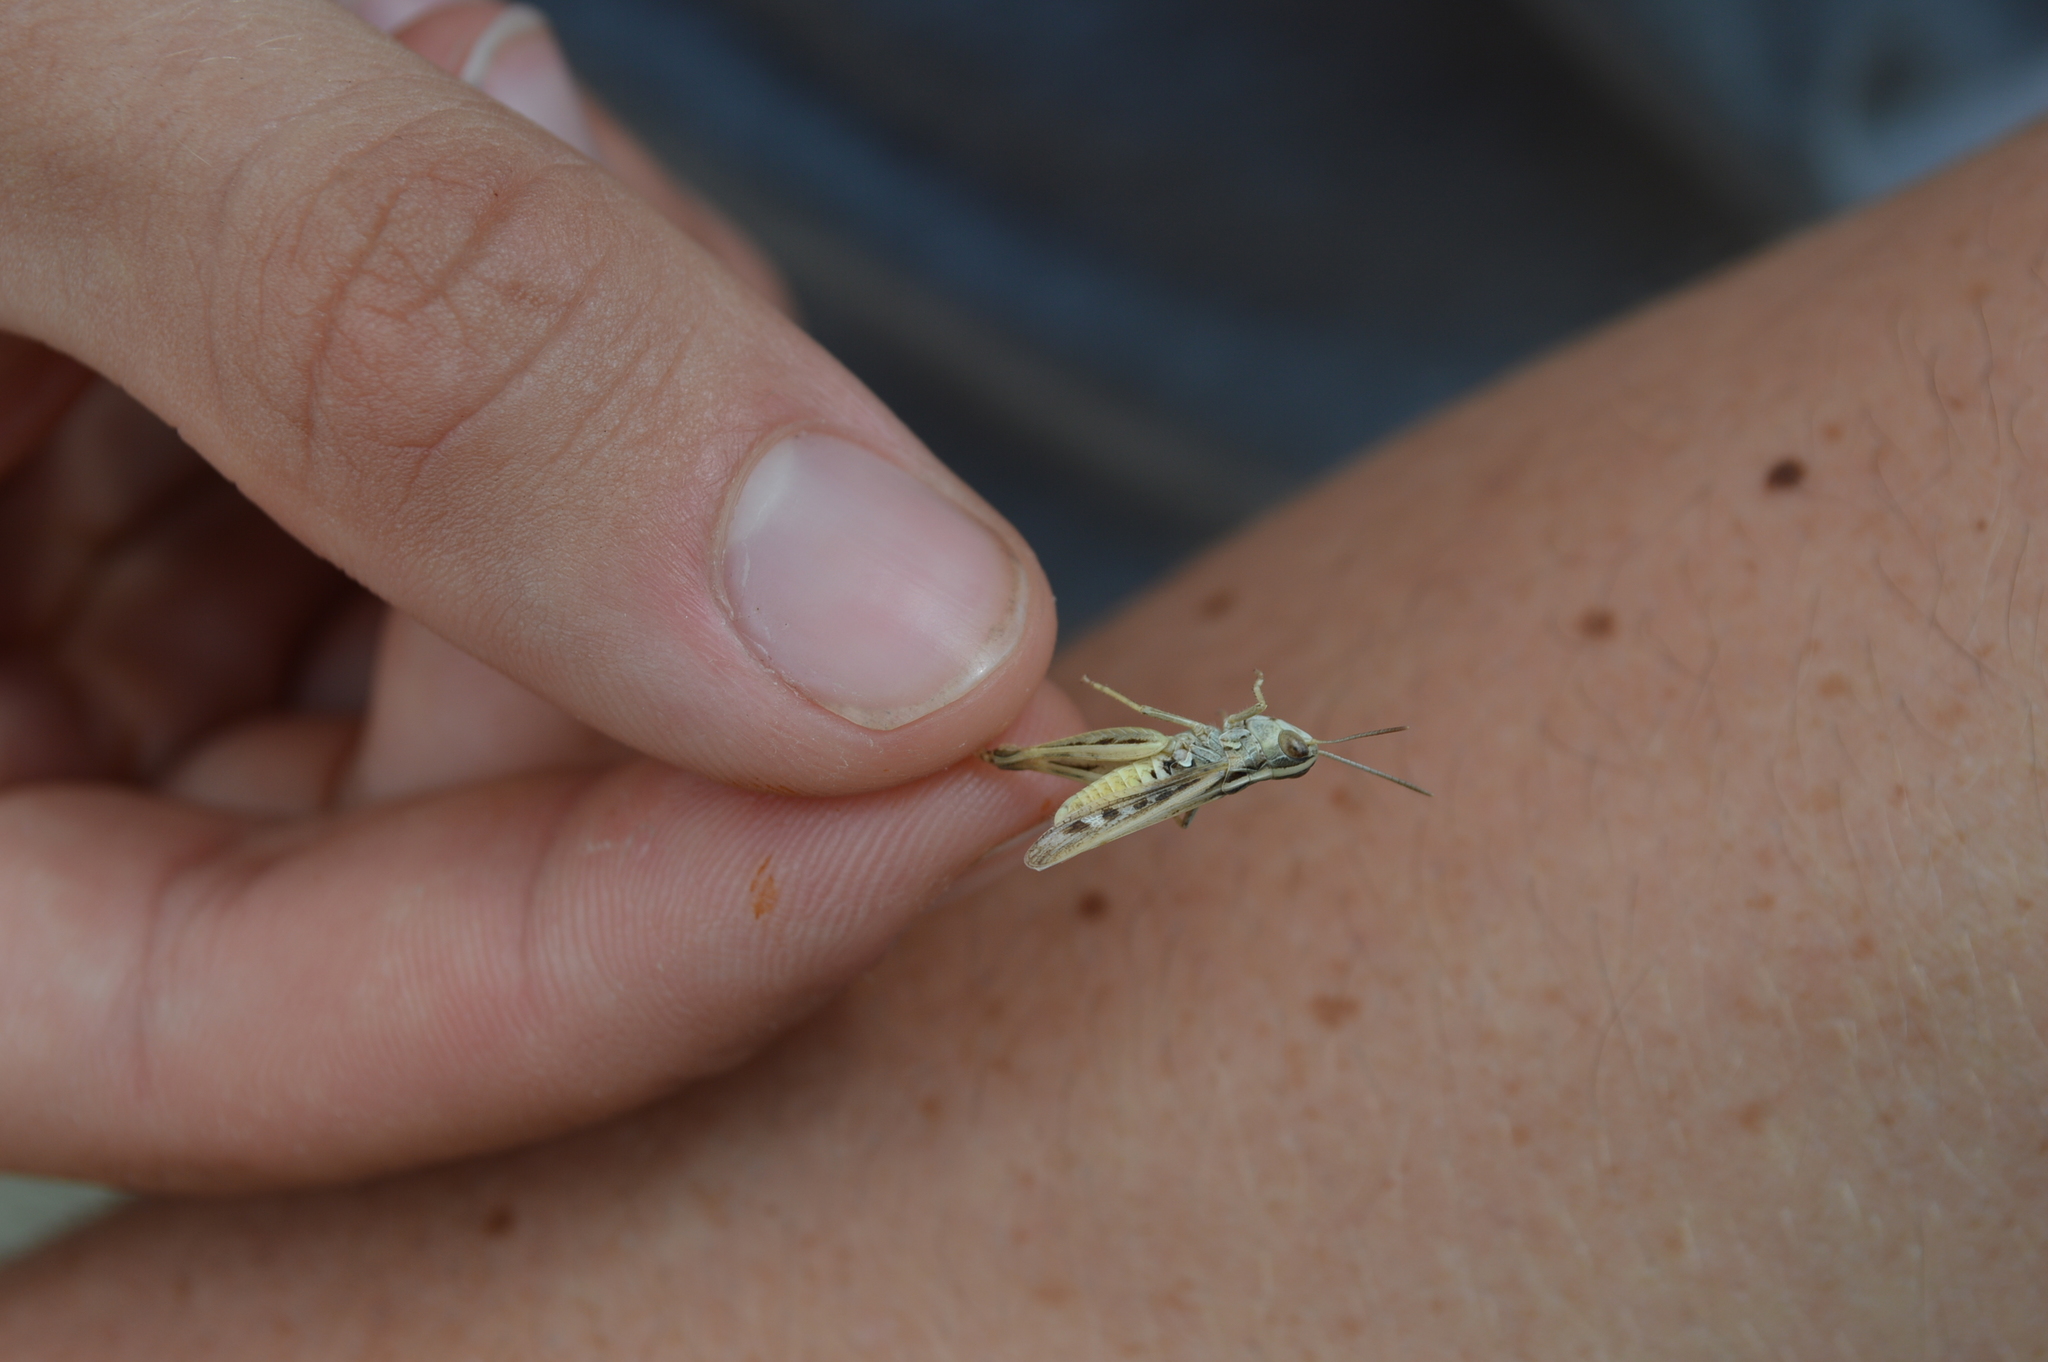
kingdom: Animalia
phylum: Arthropoda
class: Insecta
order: Orthoptera
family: Acrididae
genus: Omocestus
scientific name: Omocestus petraeus
